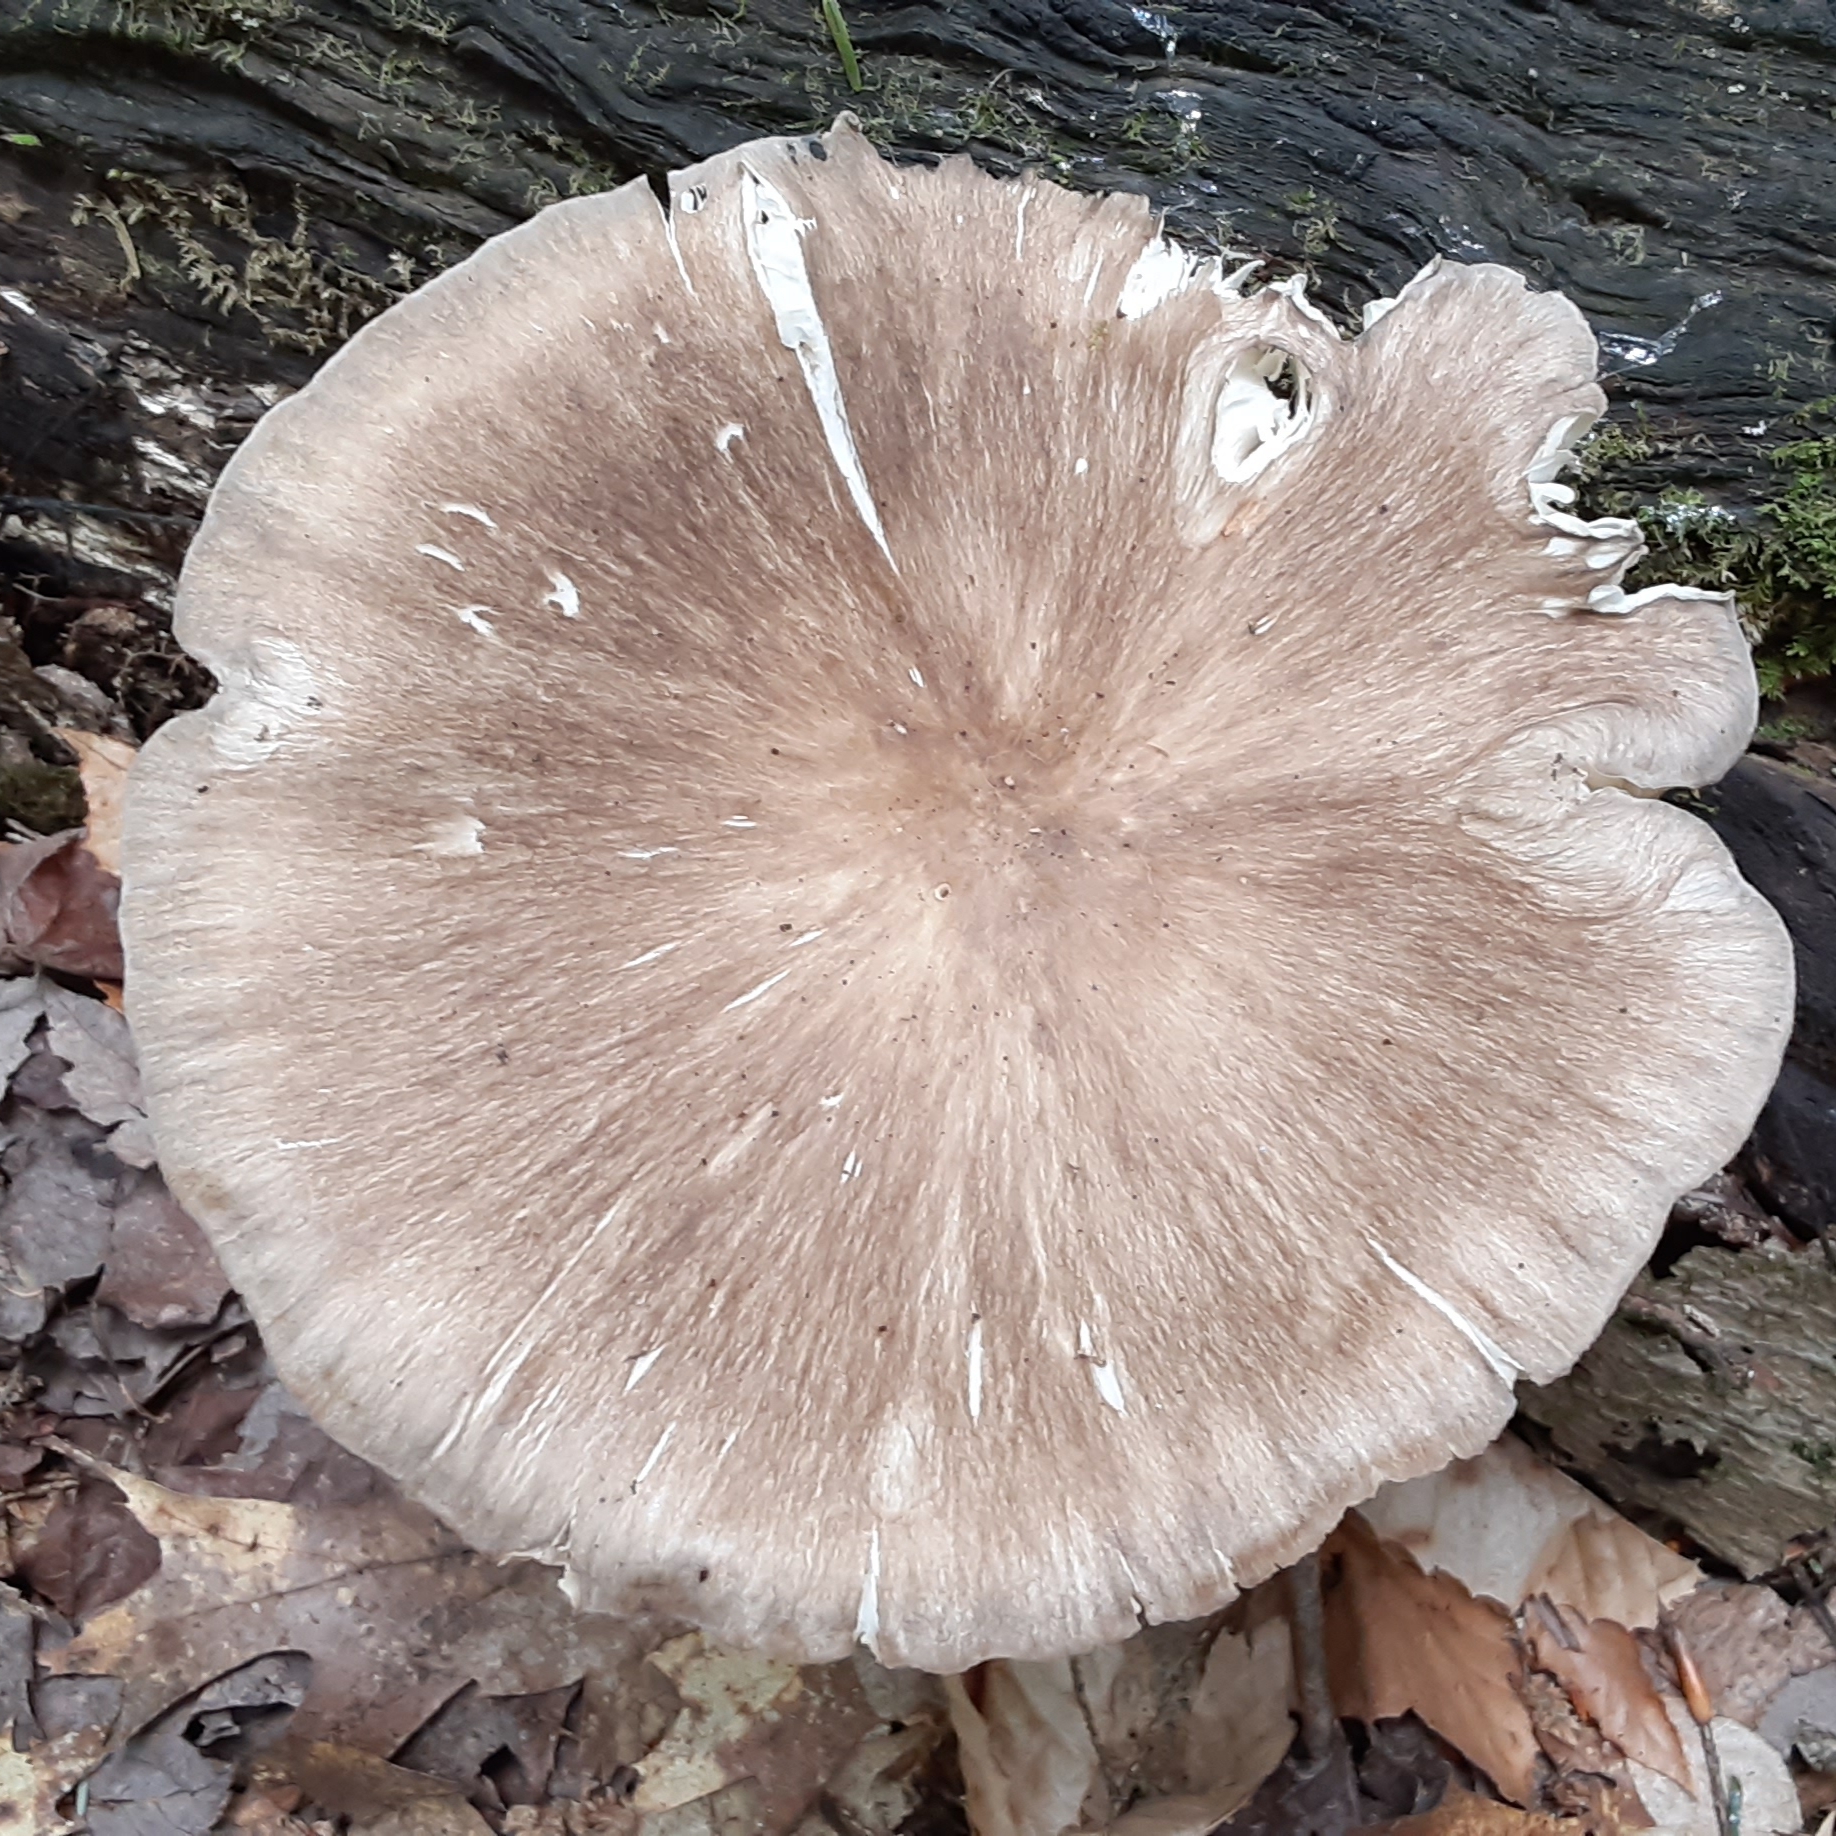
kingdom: Fungi
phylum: Basidiomycota
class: Agaricomycetes
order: Agaricales
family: Tricholomataceae
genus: Megacollybia
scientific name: Megacollybia rodmanii
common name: Eastern american platterful mushroom
